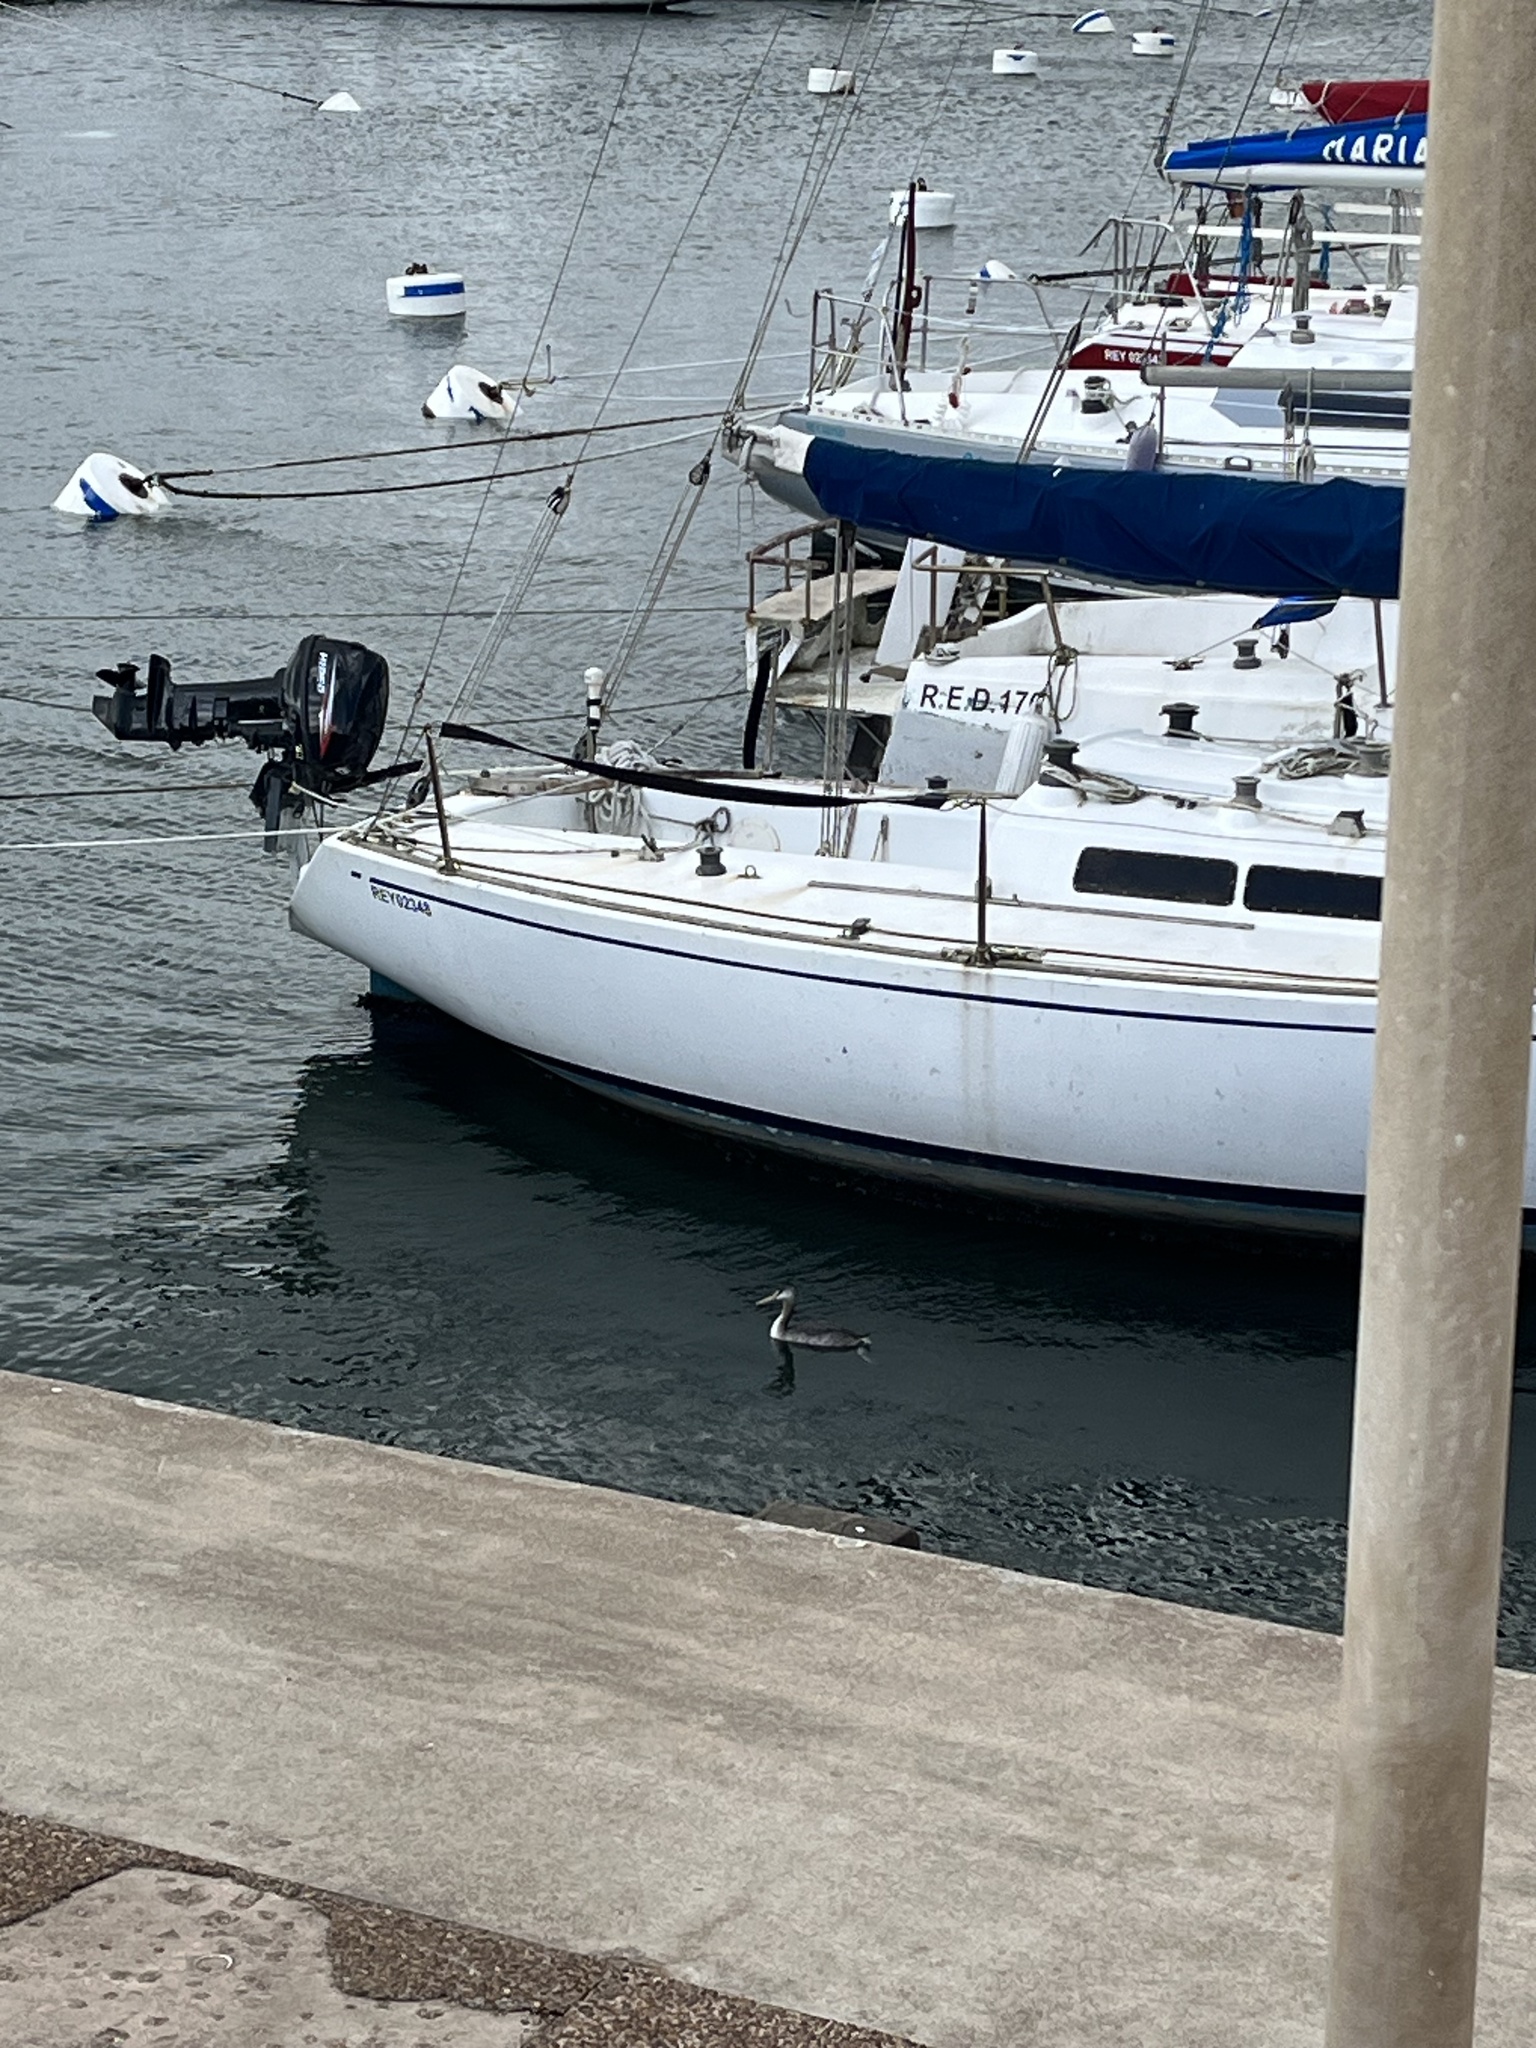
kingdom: Animalia
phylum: Chordata
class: Aves
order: Podicipediformes
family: Podicipedidae
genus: Podiceps
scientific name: Podiceps major
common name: Great grebe
